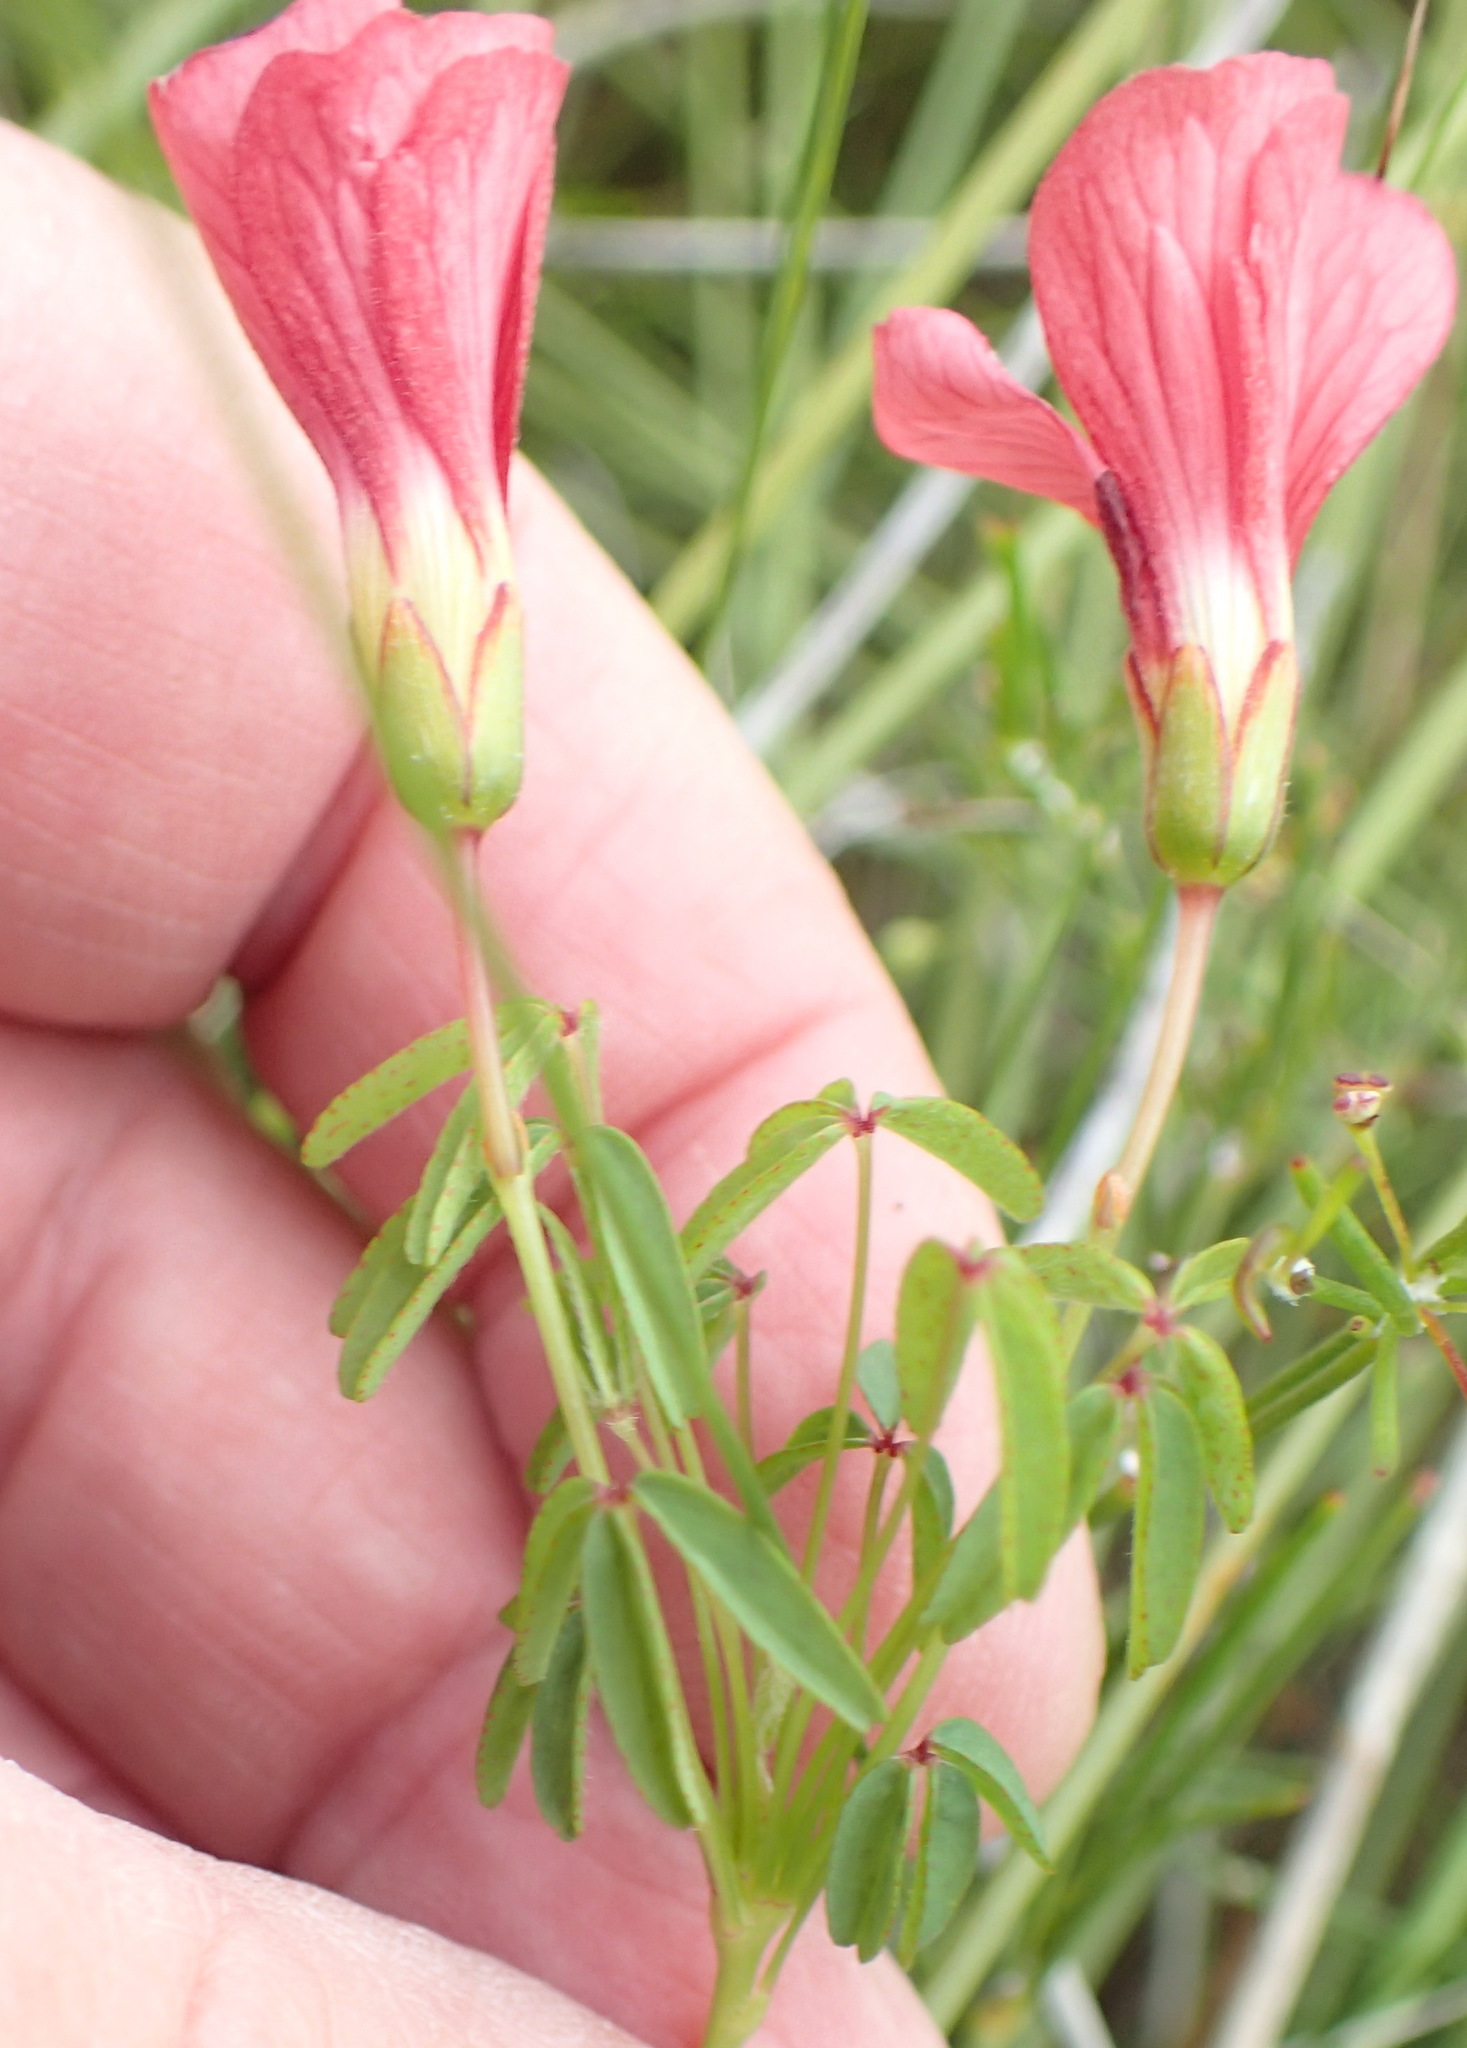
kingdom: Plantae
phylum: Tracheophyta
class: Magnoliopsida
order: Oxalidales
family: Oxalidaceae
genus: Oxalis
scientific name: Oxalis pendulifolia
